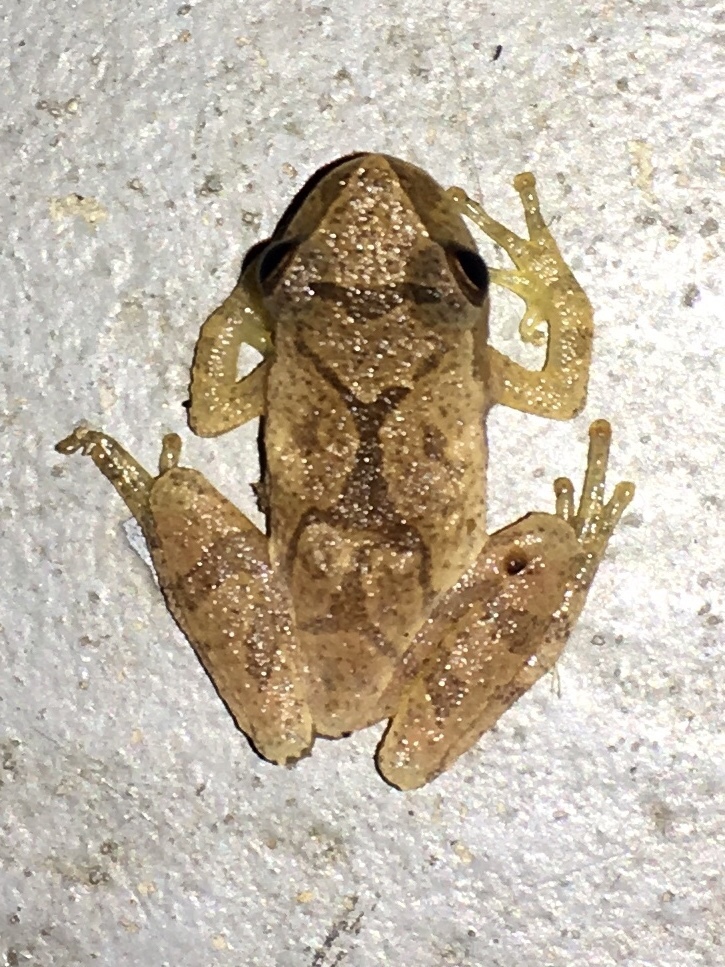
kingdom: Animalia
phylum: Chordata
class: Amphibia
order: Anura
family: Hylidae
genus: Pseudacris
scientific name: Pseudacris crucifer
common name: Spring peeper
